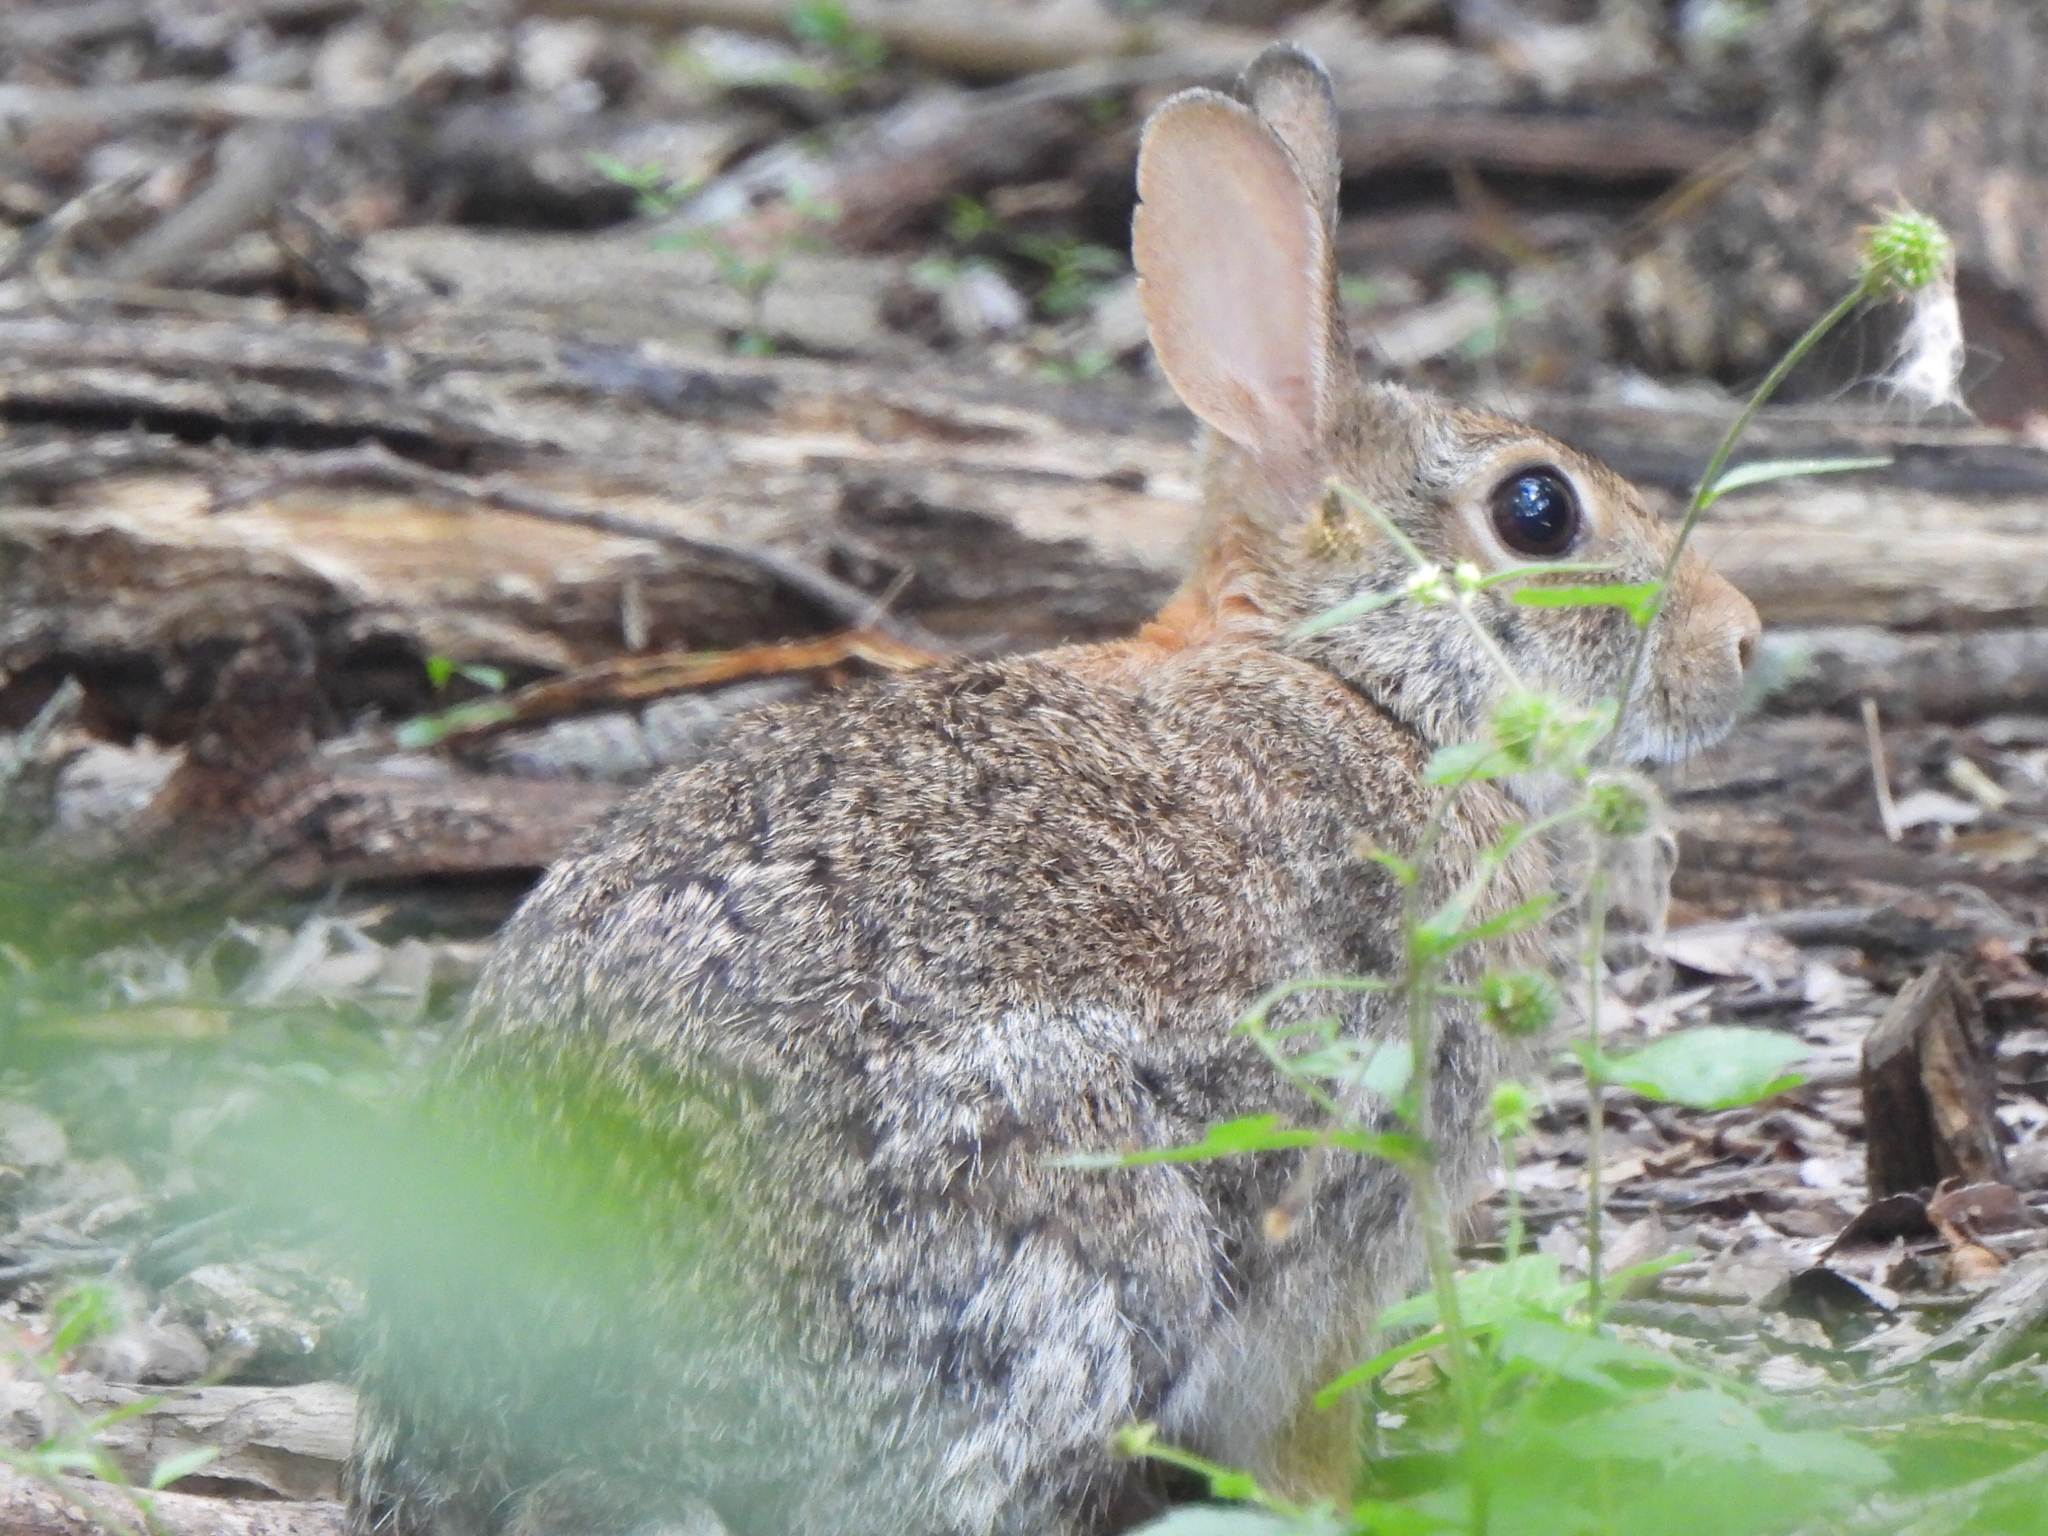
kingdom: Animalia
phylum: Chordata
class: Mammalia
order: Lagomorpha
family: Leporidae
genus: Sylvilagus
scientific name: Sylvilagus floridanus
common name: Eastern cottontail
